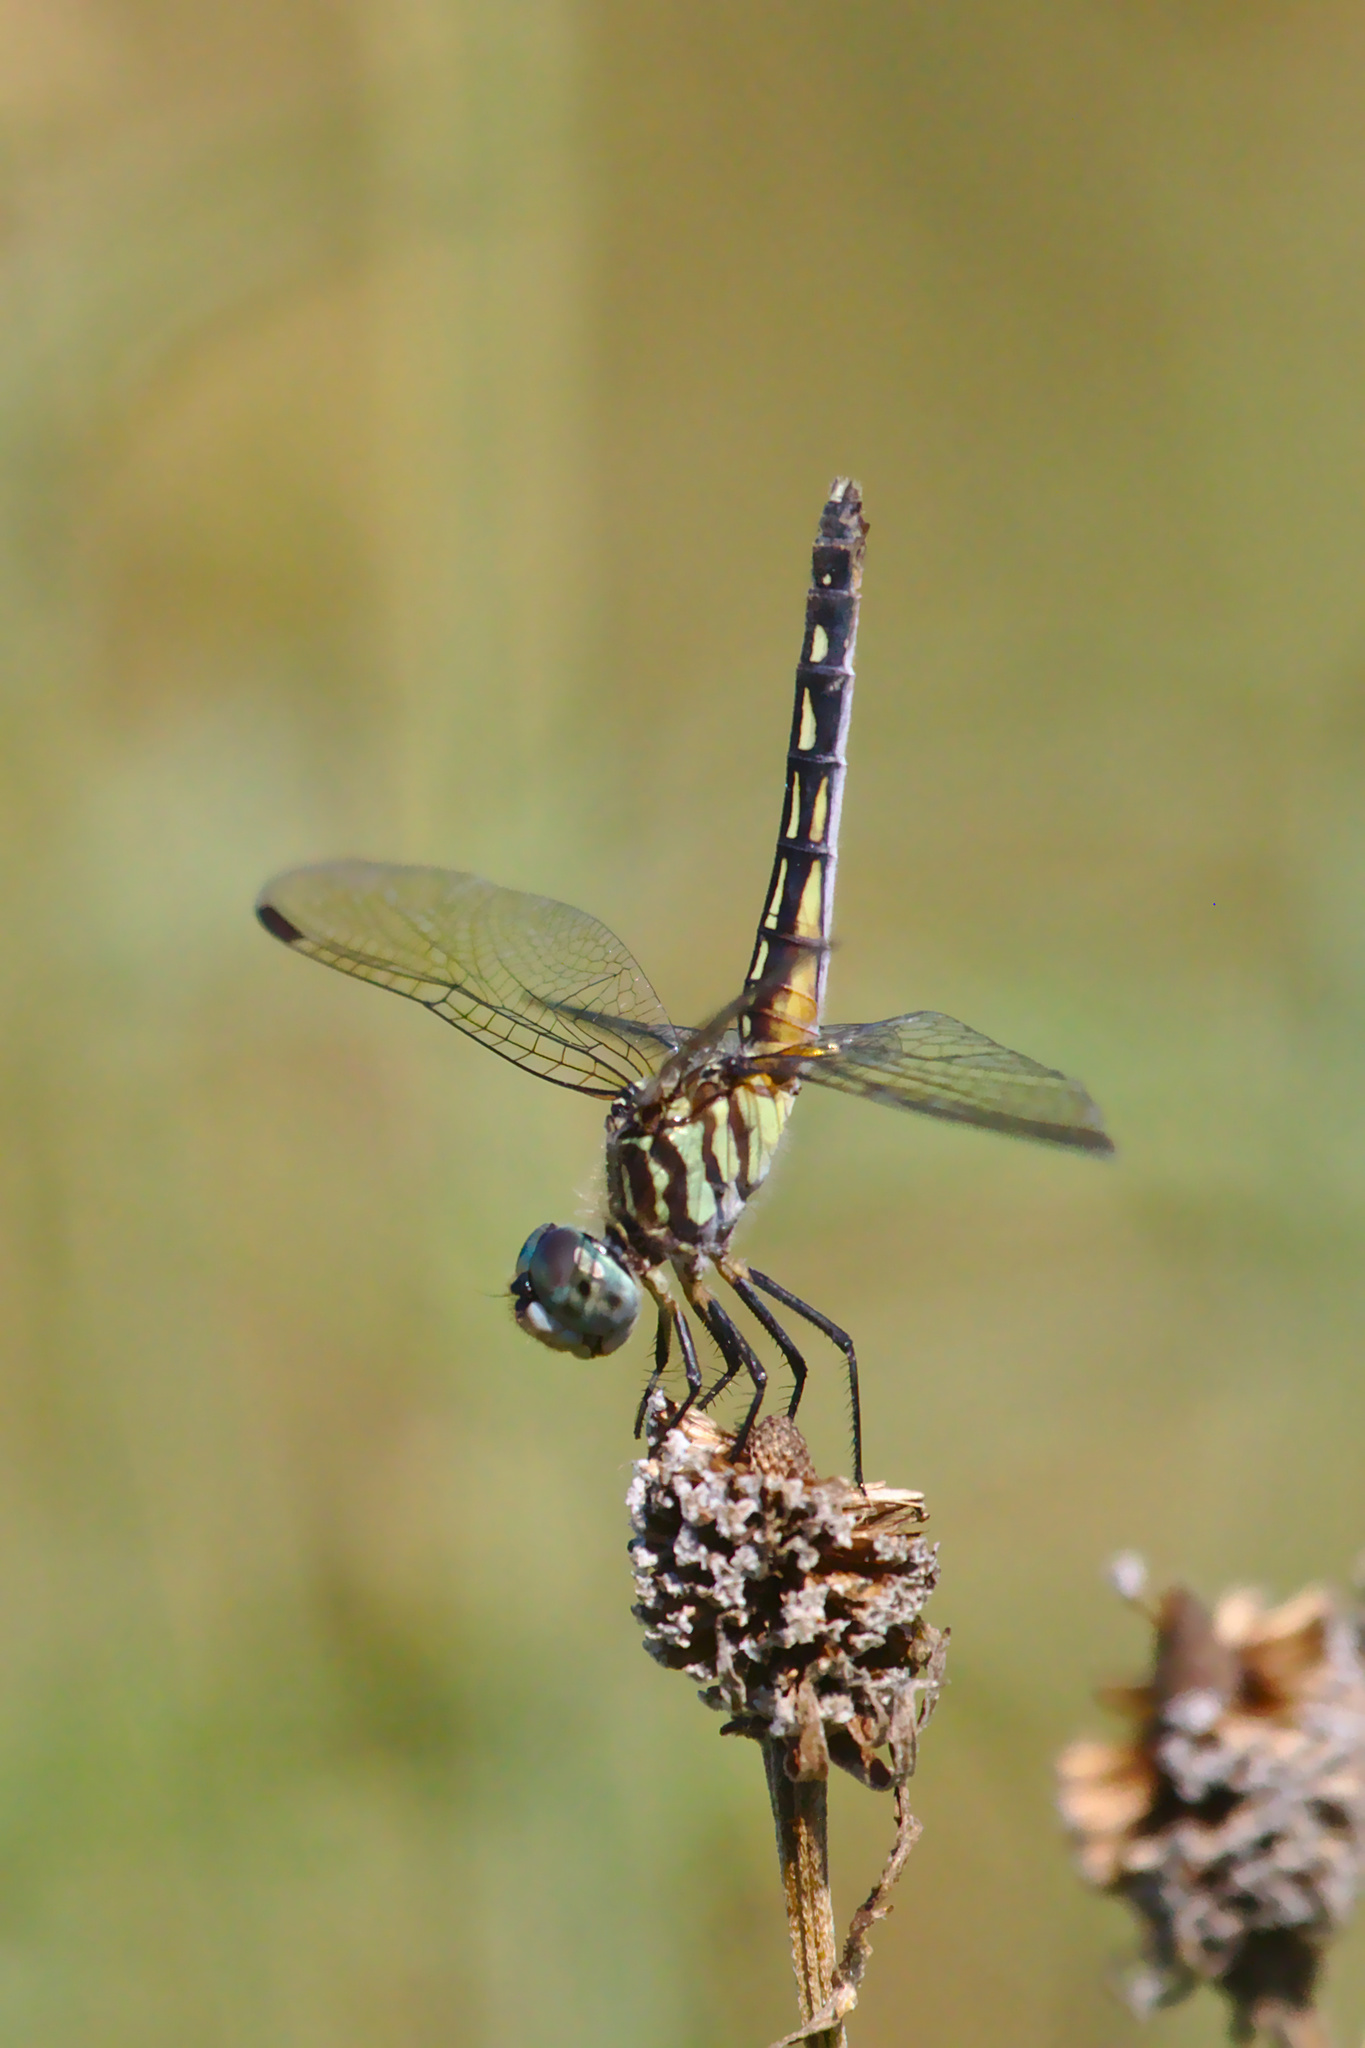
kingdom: Animalia
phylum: Arthropoda
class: Insecta
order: Odonata
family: Libellulidae
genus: Pachydiplax
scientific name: Pachydiplax longipennis
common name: Blue dasher
